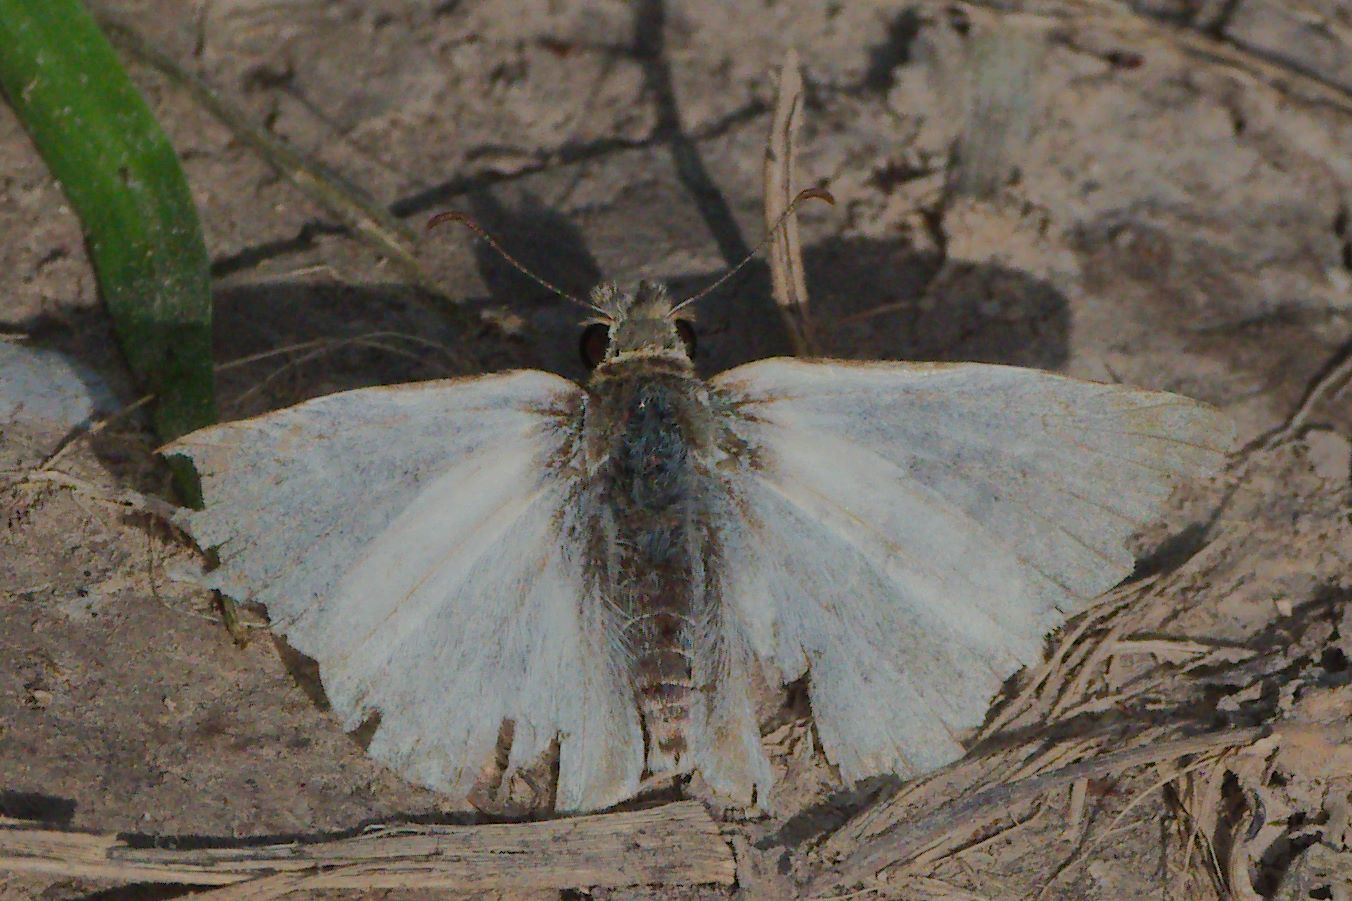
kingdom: Animalia
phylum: Arthropoda
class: Insecta
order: Lepidoptera
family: Hesperiidae
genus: Heliopetes
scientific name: Heliopetes laviana
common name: Laviana white-skipper
